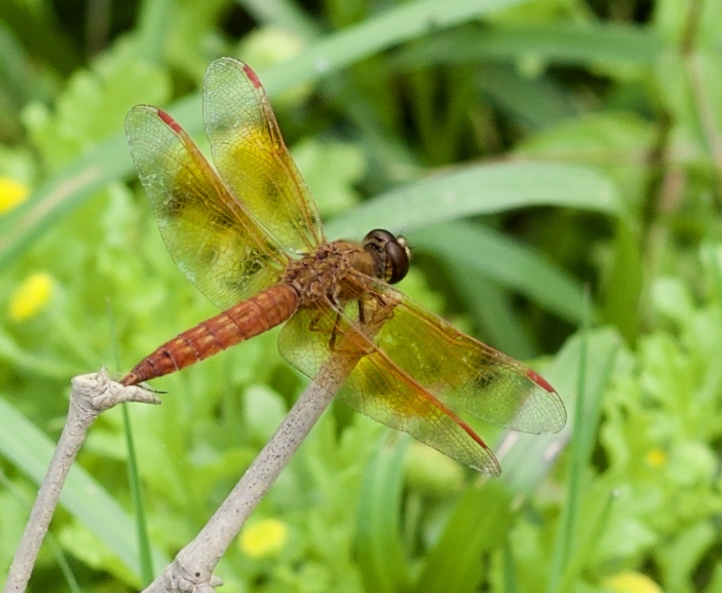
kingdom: Animalia
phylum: Arthropoda
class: Insecta
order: Odonata
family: Libellulidae
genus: Brachythemis
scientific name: Brachythemis contaminata
